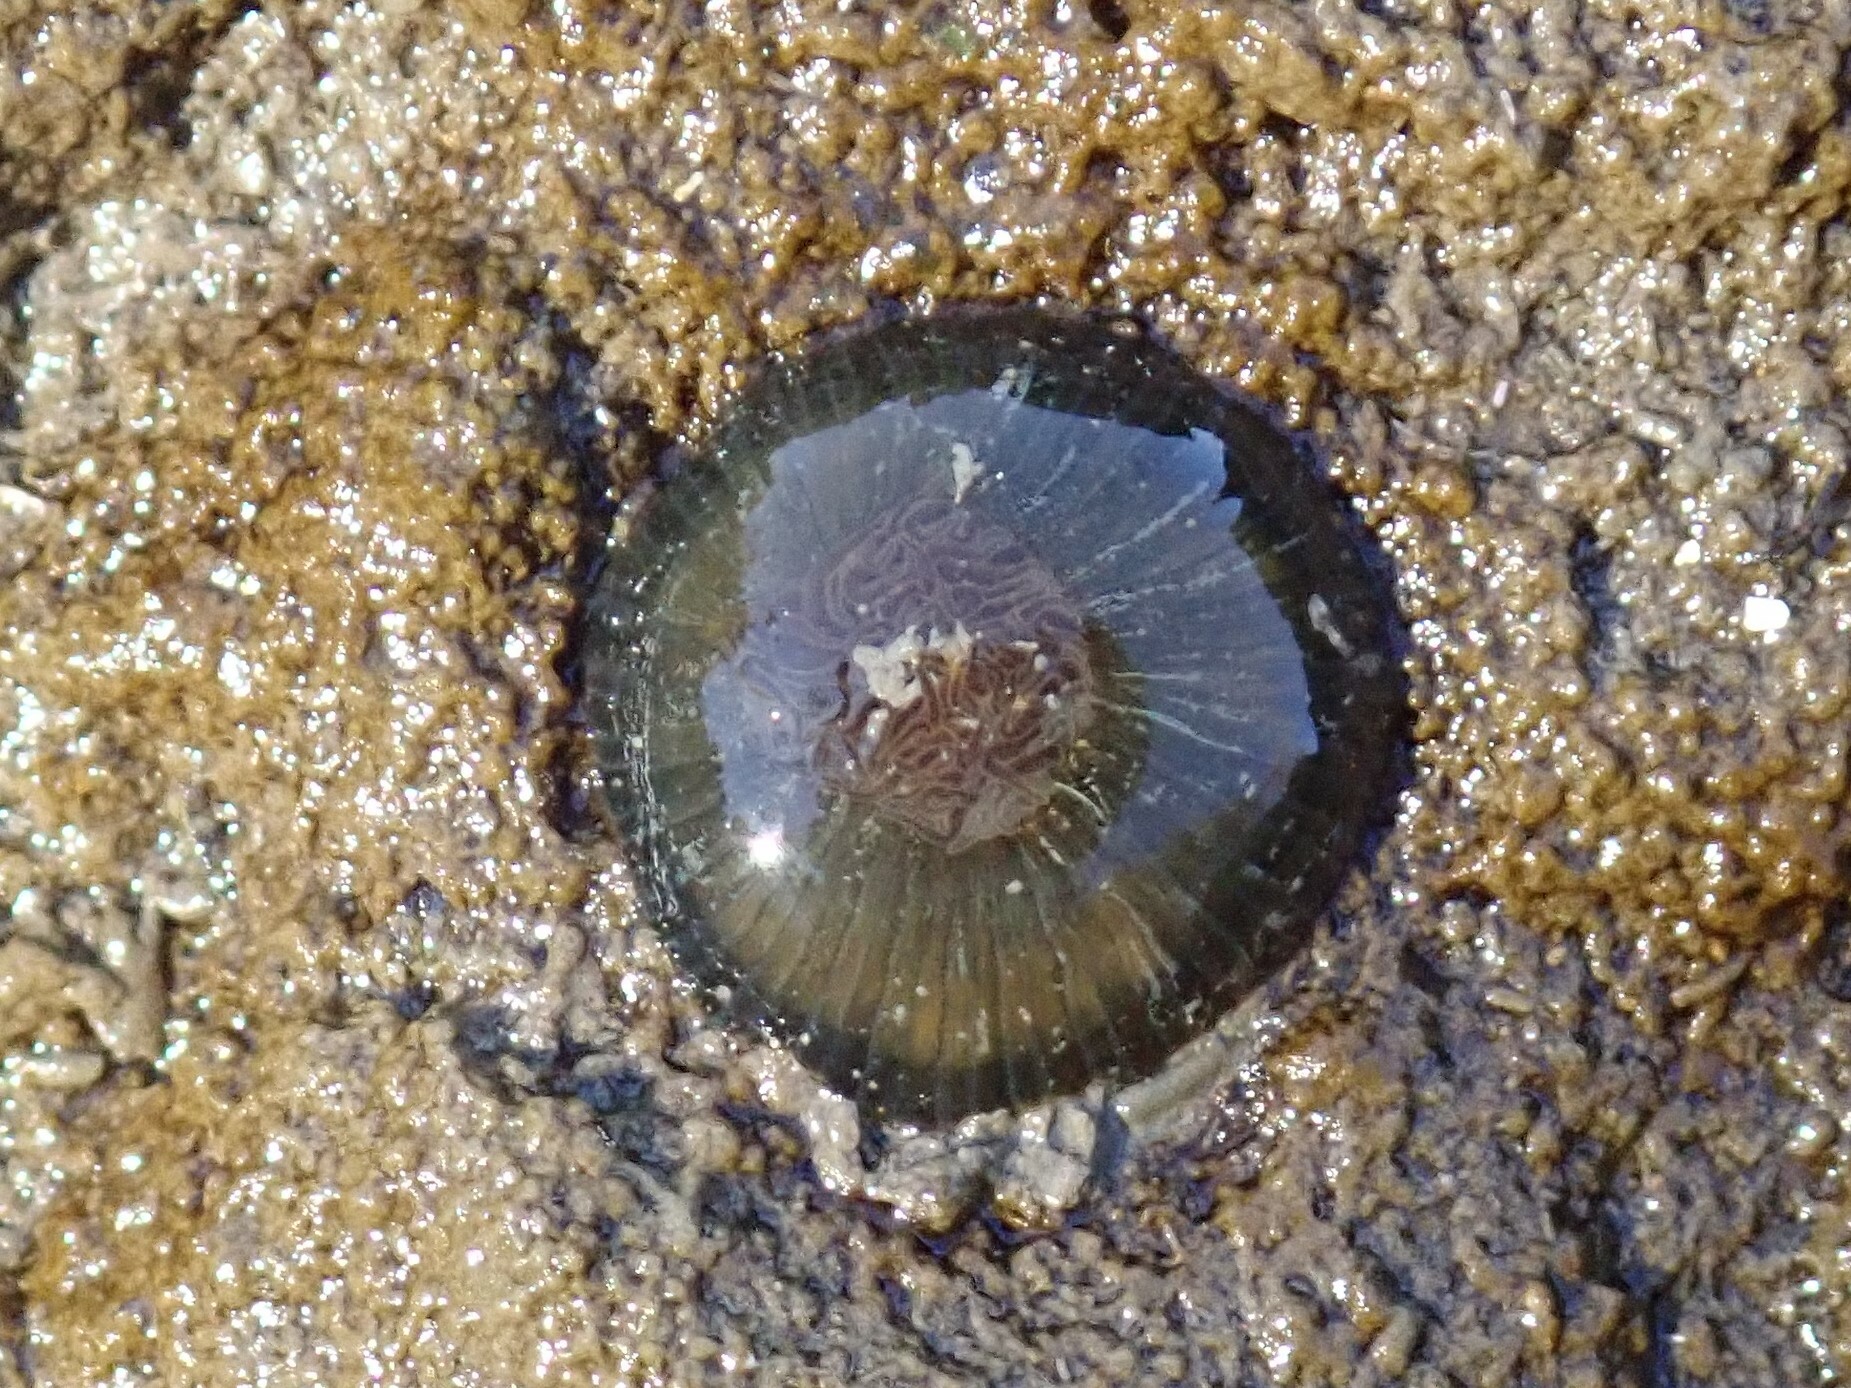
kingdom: Animalia
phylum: Cnidaria
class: Anthozoa
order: Actiniaria
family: Diadumenidae
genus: Diadumene
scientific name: Diadumene lineata
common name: Orange-striped anemone
